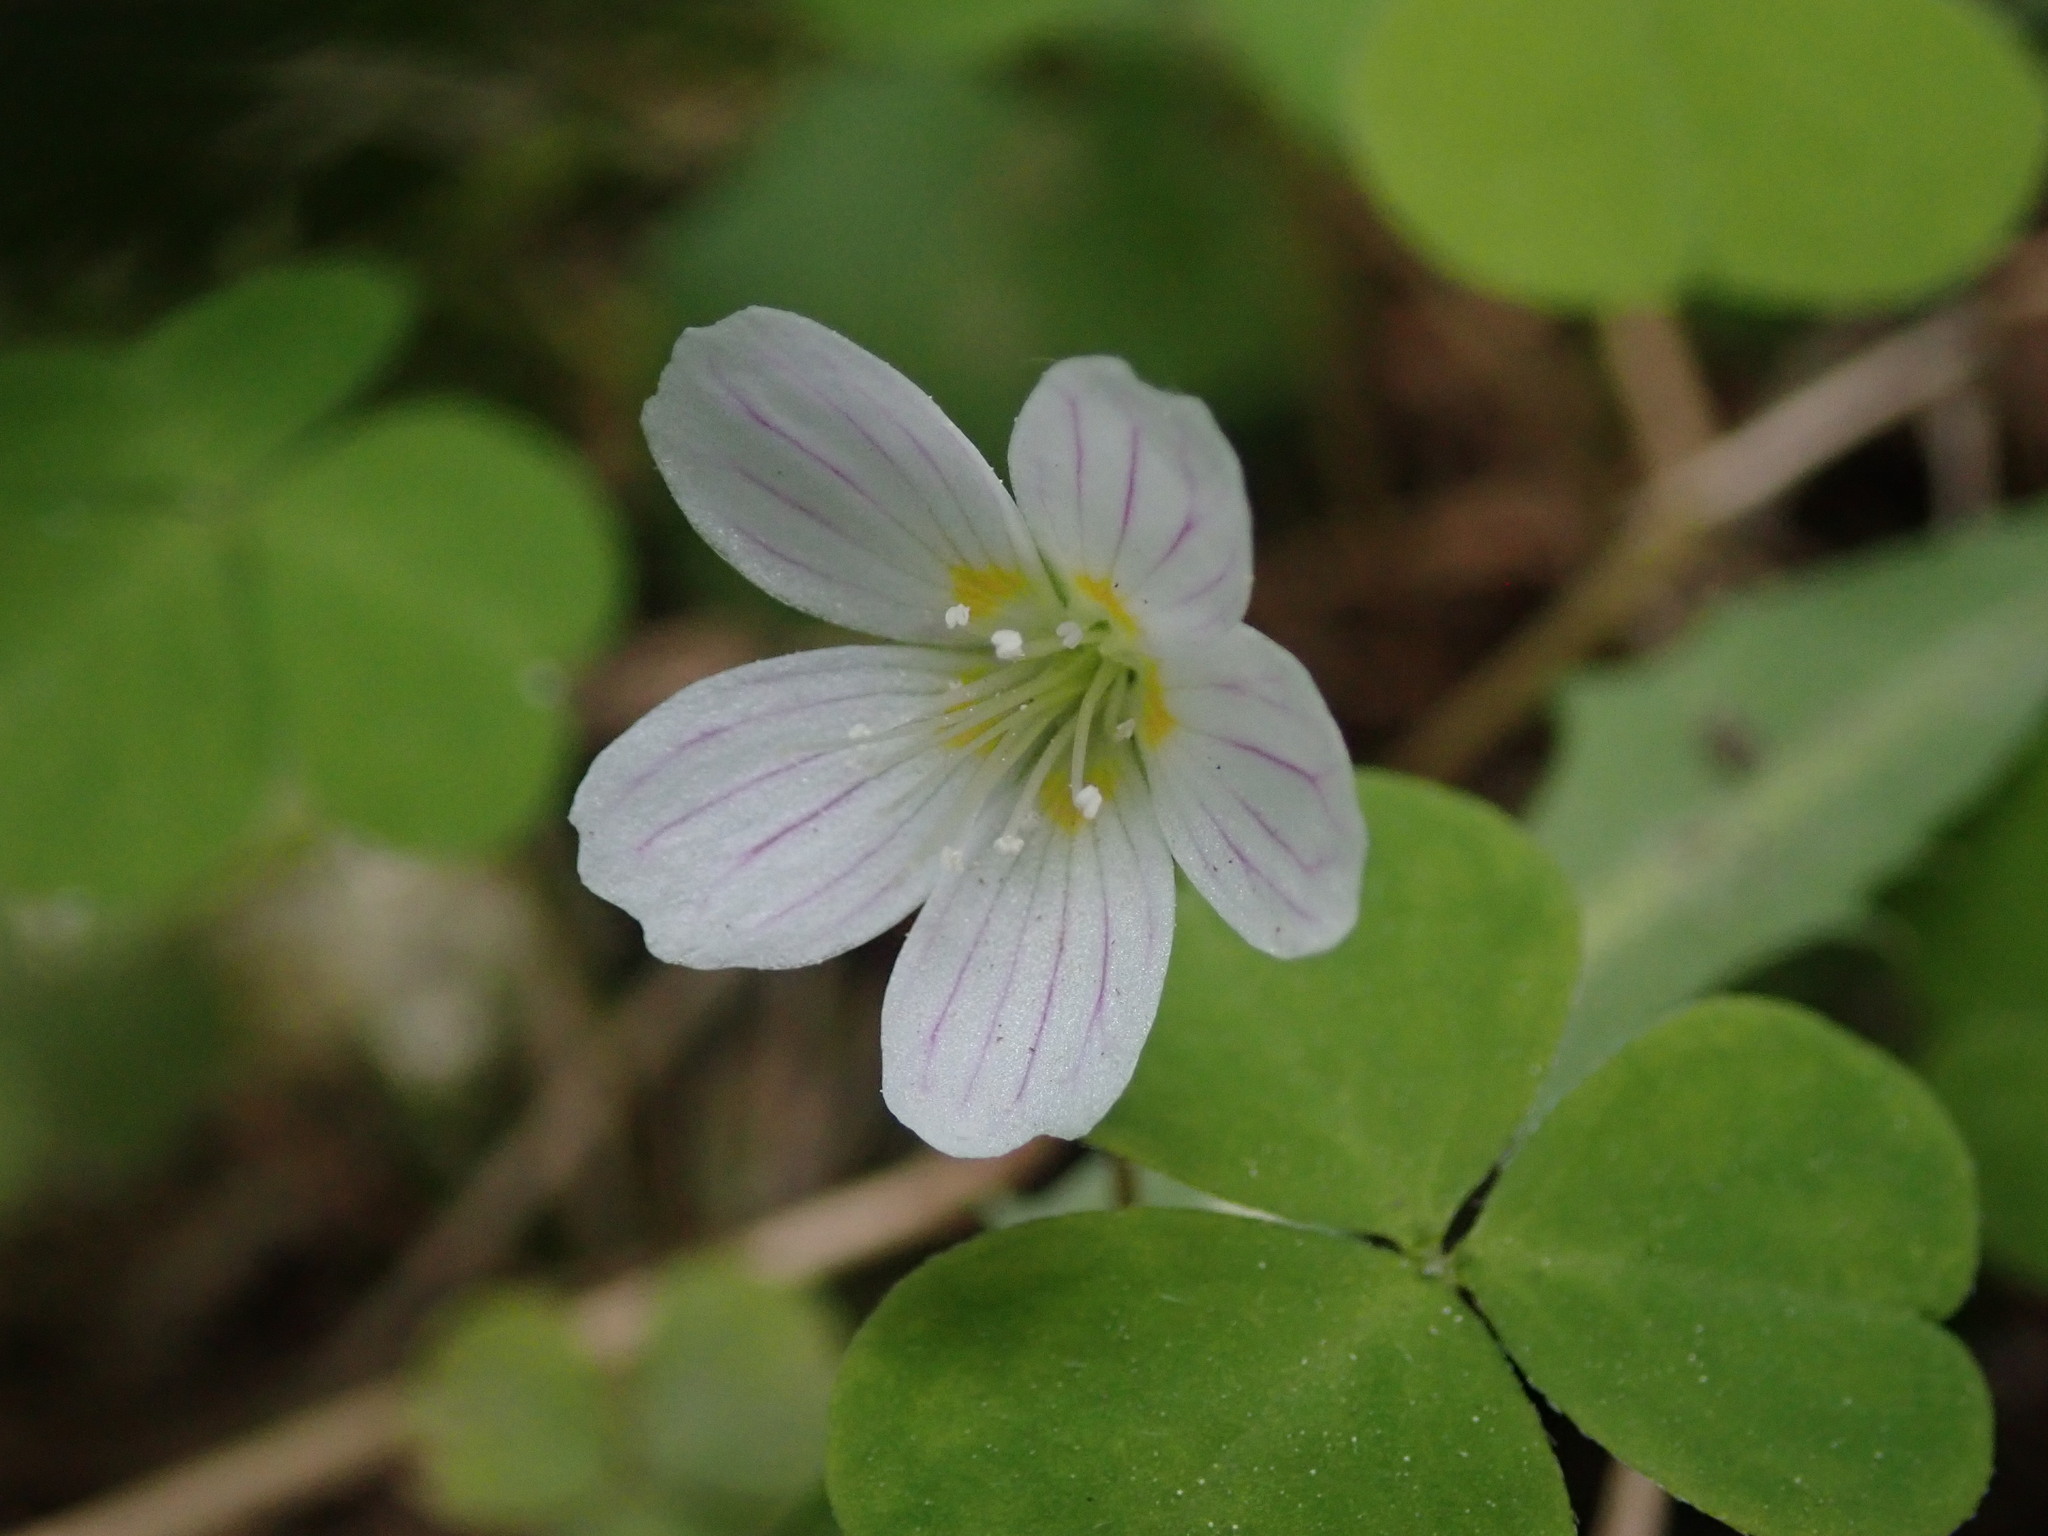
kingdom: Plantae
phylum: Tracheophyta
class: Magnoliopsida
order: Oxalidales
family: Oxalidaceae
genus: Oxalis
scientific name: Oxalis acetosella
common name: Wood-sorrel
